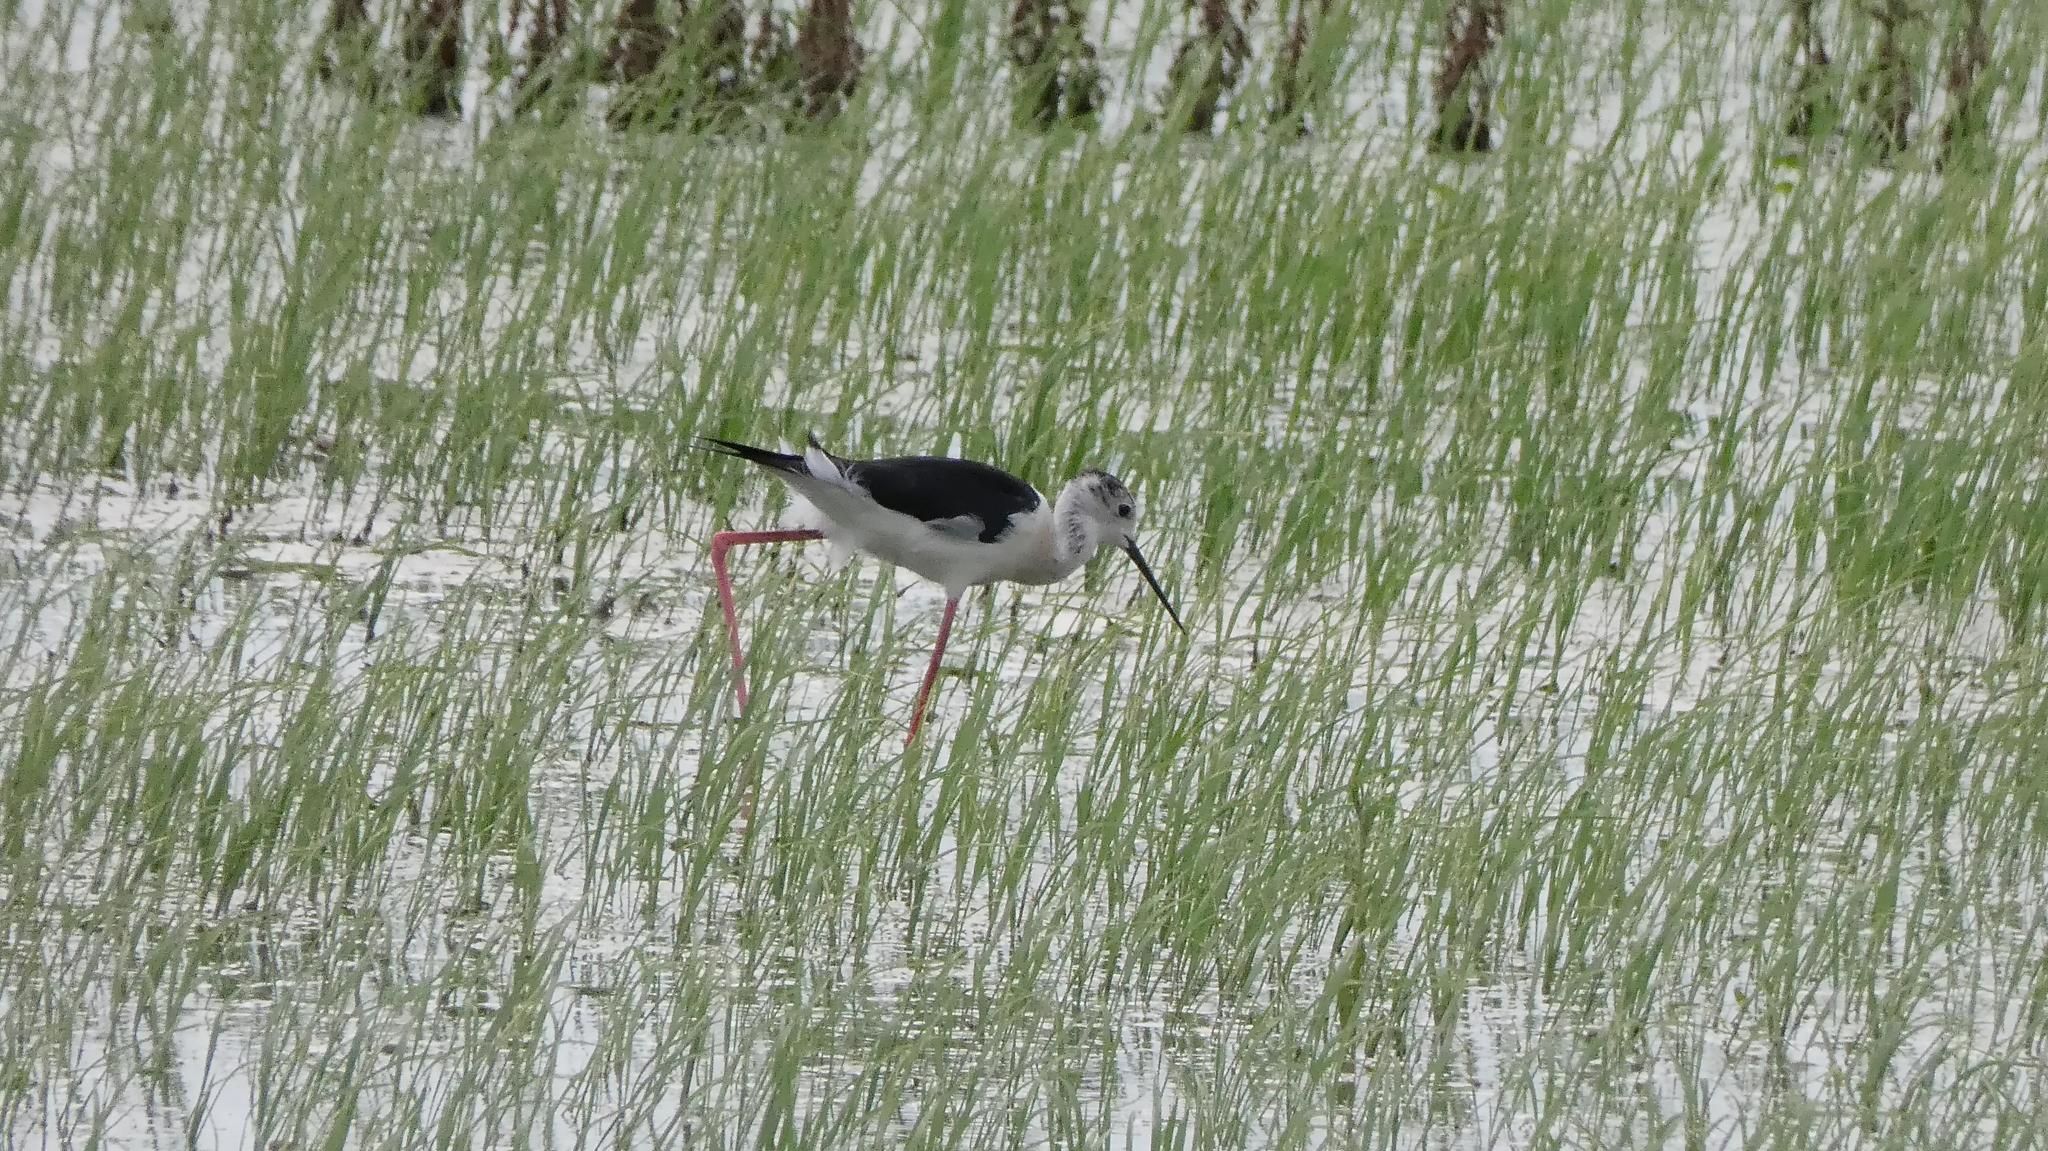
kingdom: Animalia
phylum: Chordata
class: Aves
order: Charadriiformes
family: Recurvirostridae
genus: Himantopus
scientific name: Himantopus himantopus
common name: Black-winged stilt
